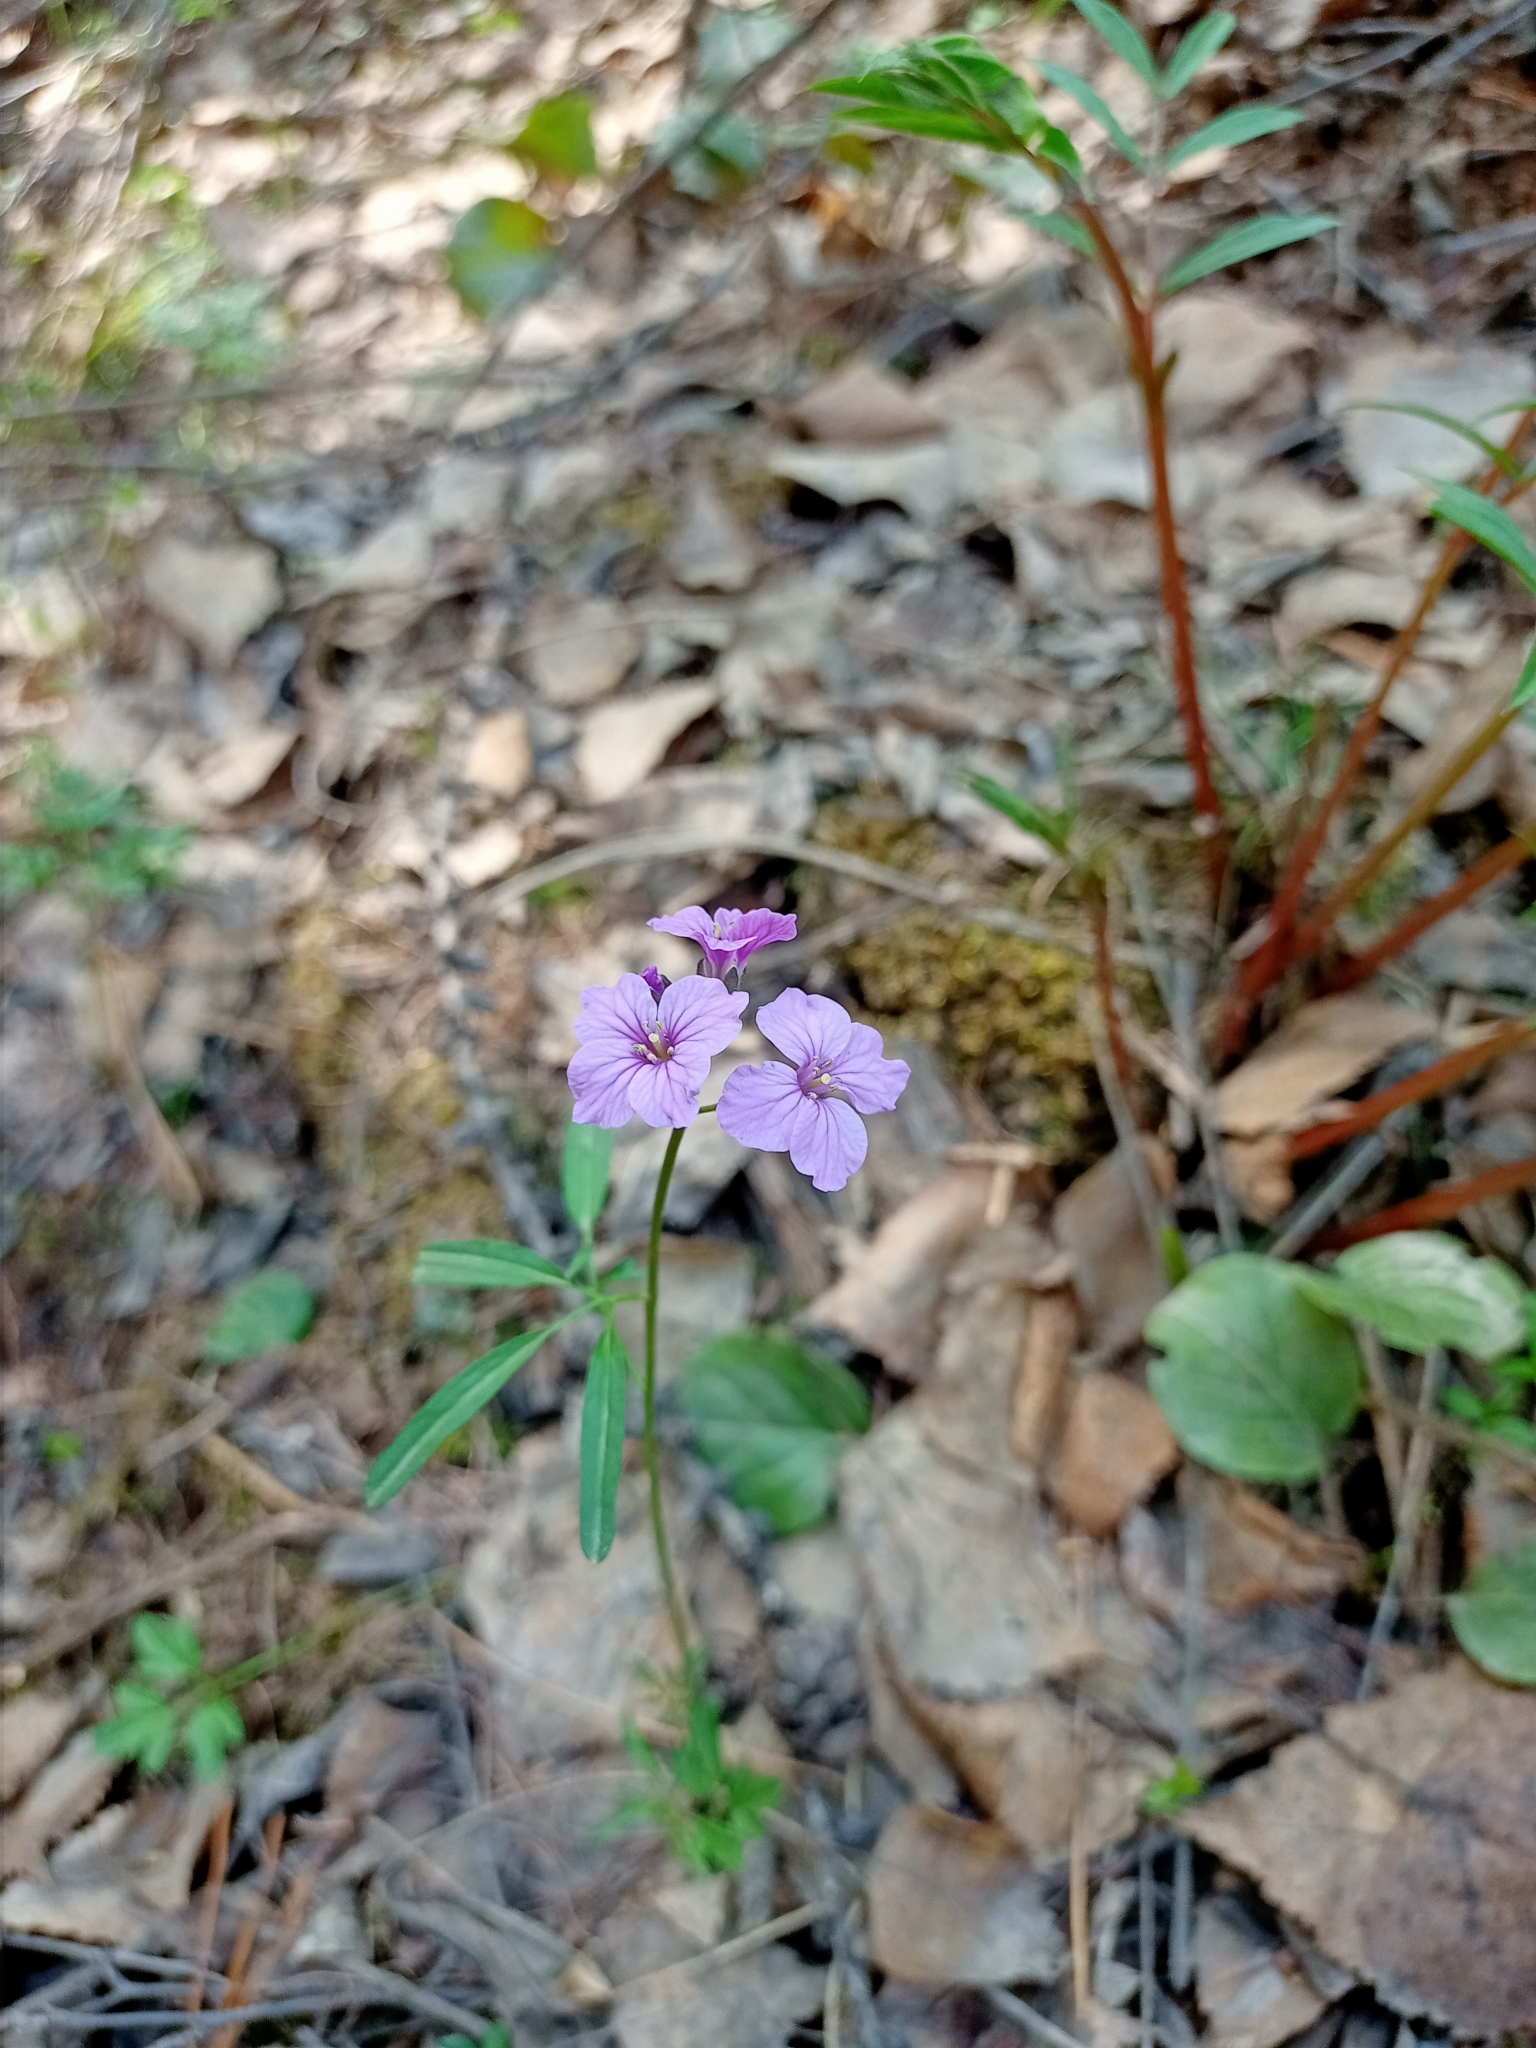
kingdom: Plantae
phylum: Tracheophyta
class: Magnoliopsida
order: Brassicales
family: Brassicaceae
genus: Cardamine
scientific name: Cardamine trifida
